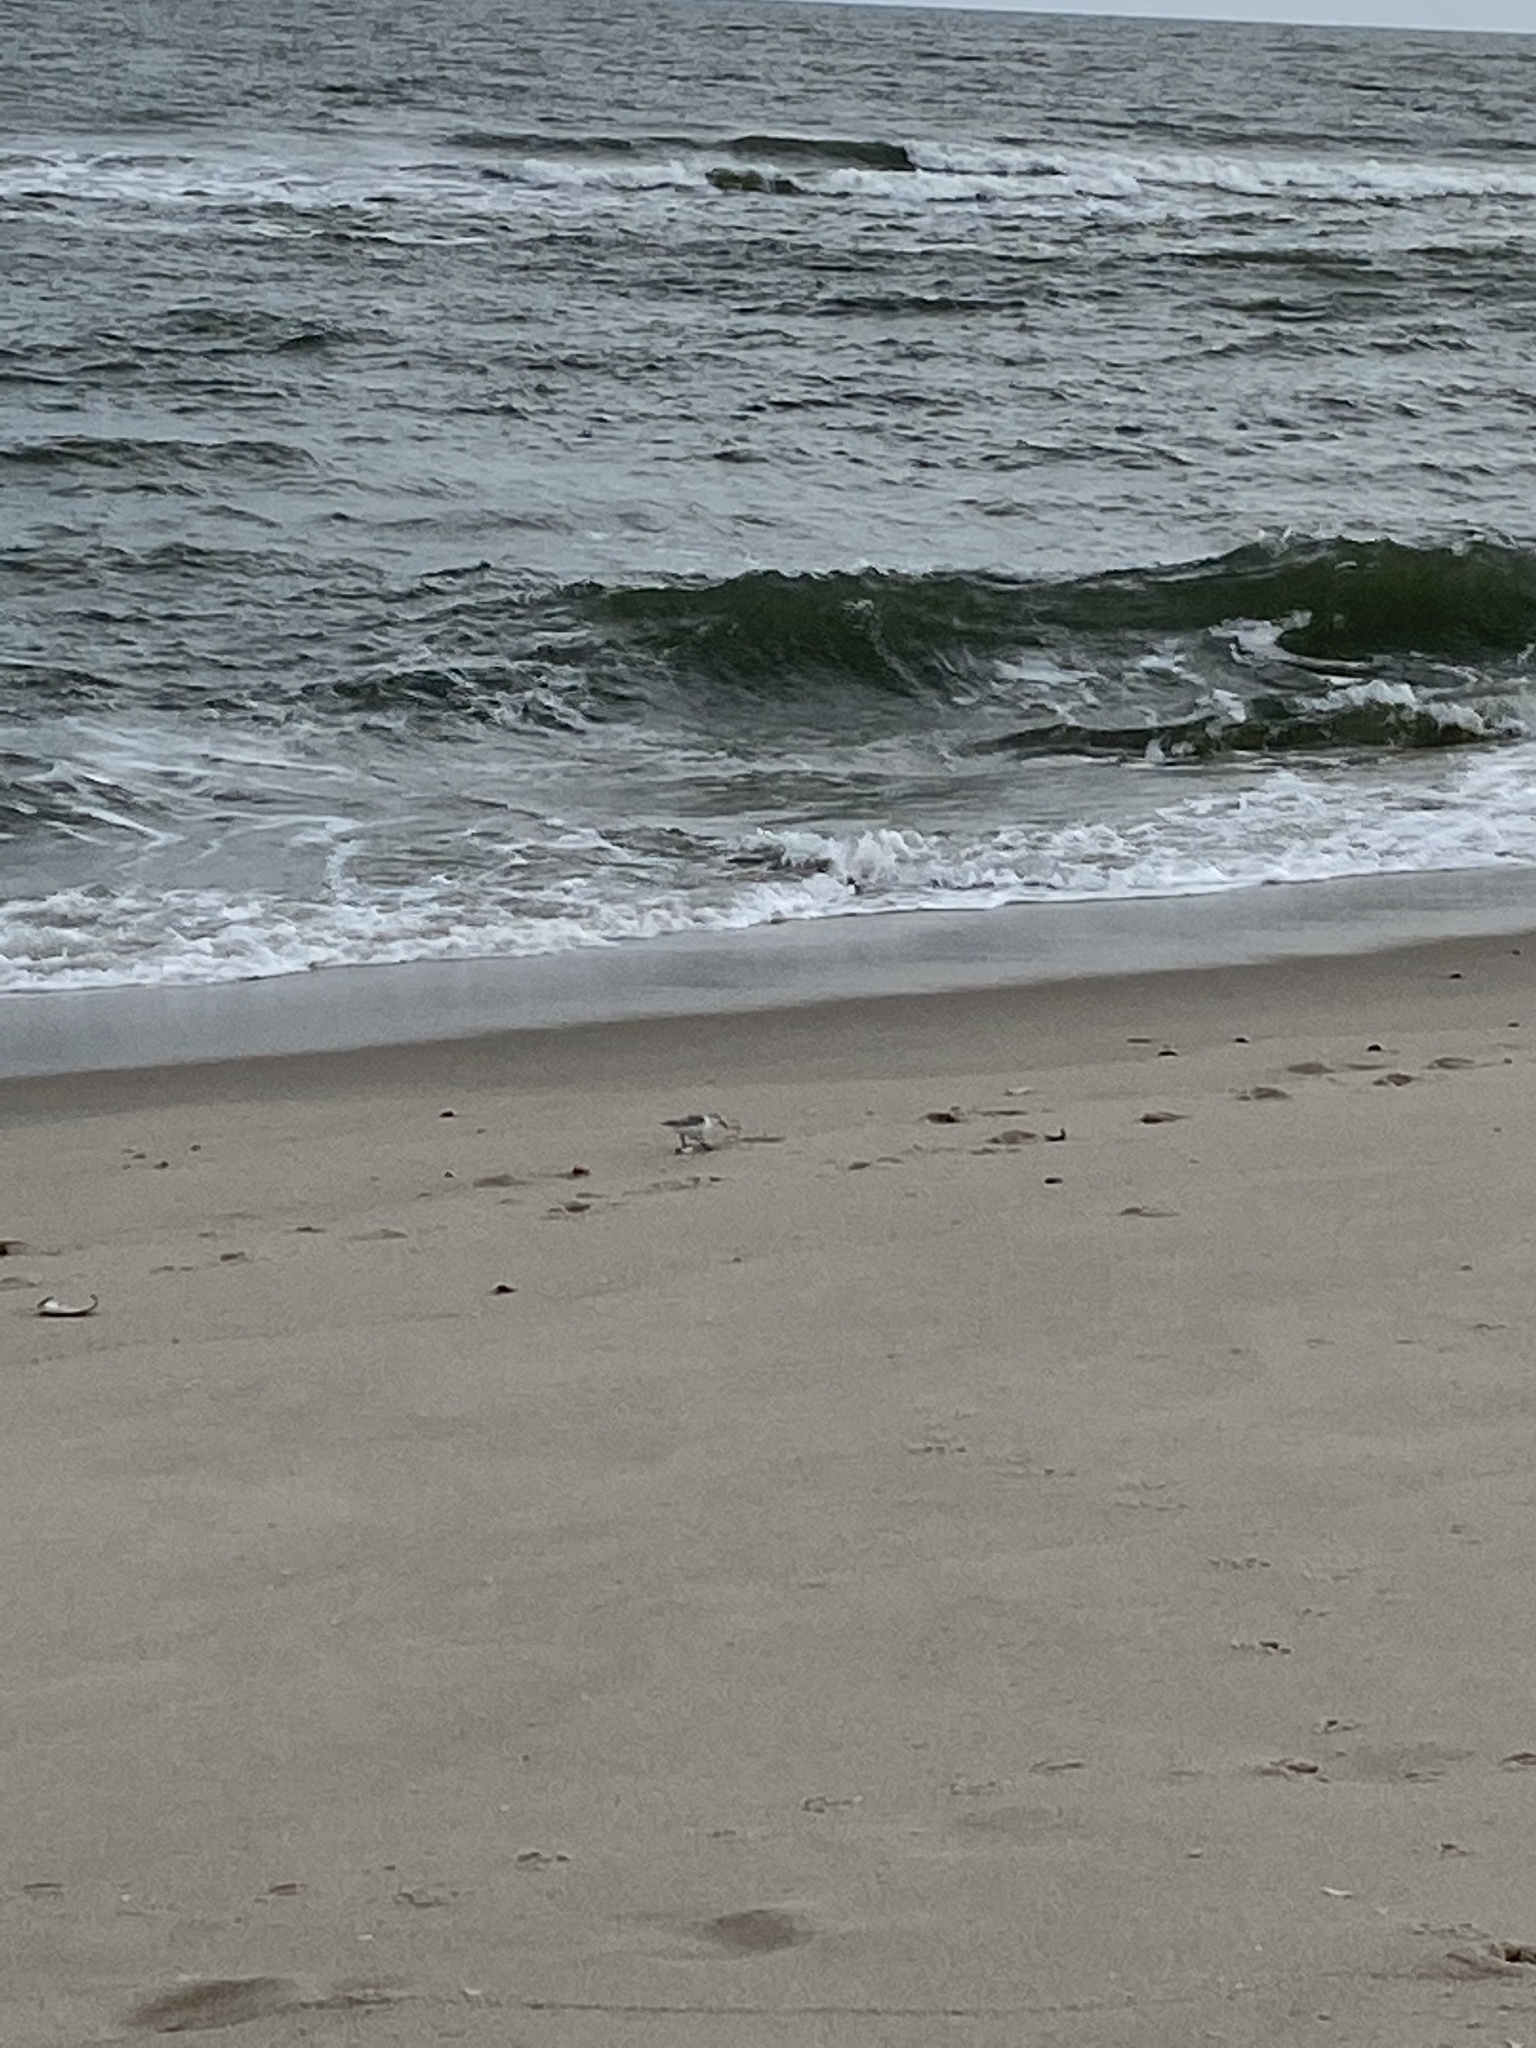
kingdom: Animalia
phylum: Chordata
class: Aves
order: Charadriiformes
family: Scolopacidae
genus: Calidris
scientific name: Calidris alba
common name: Sanderling
